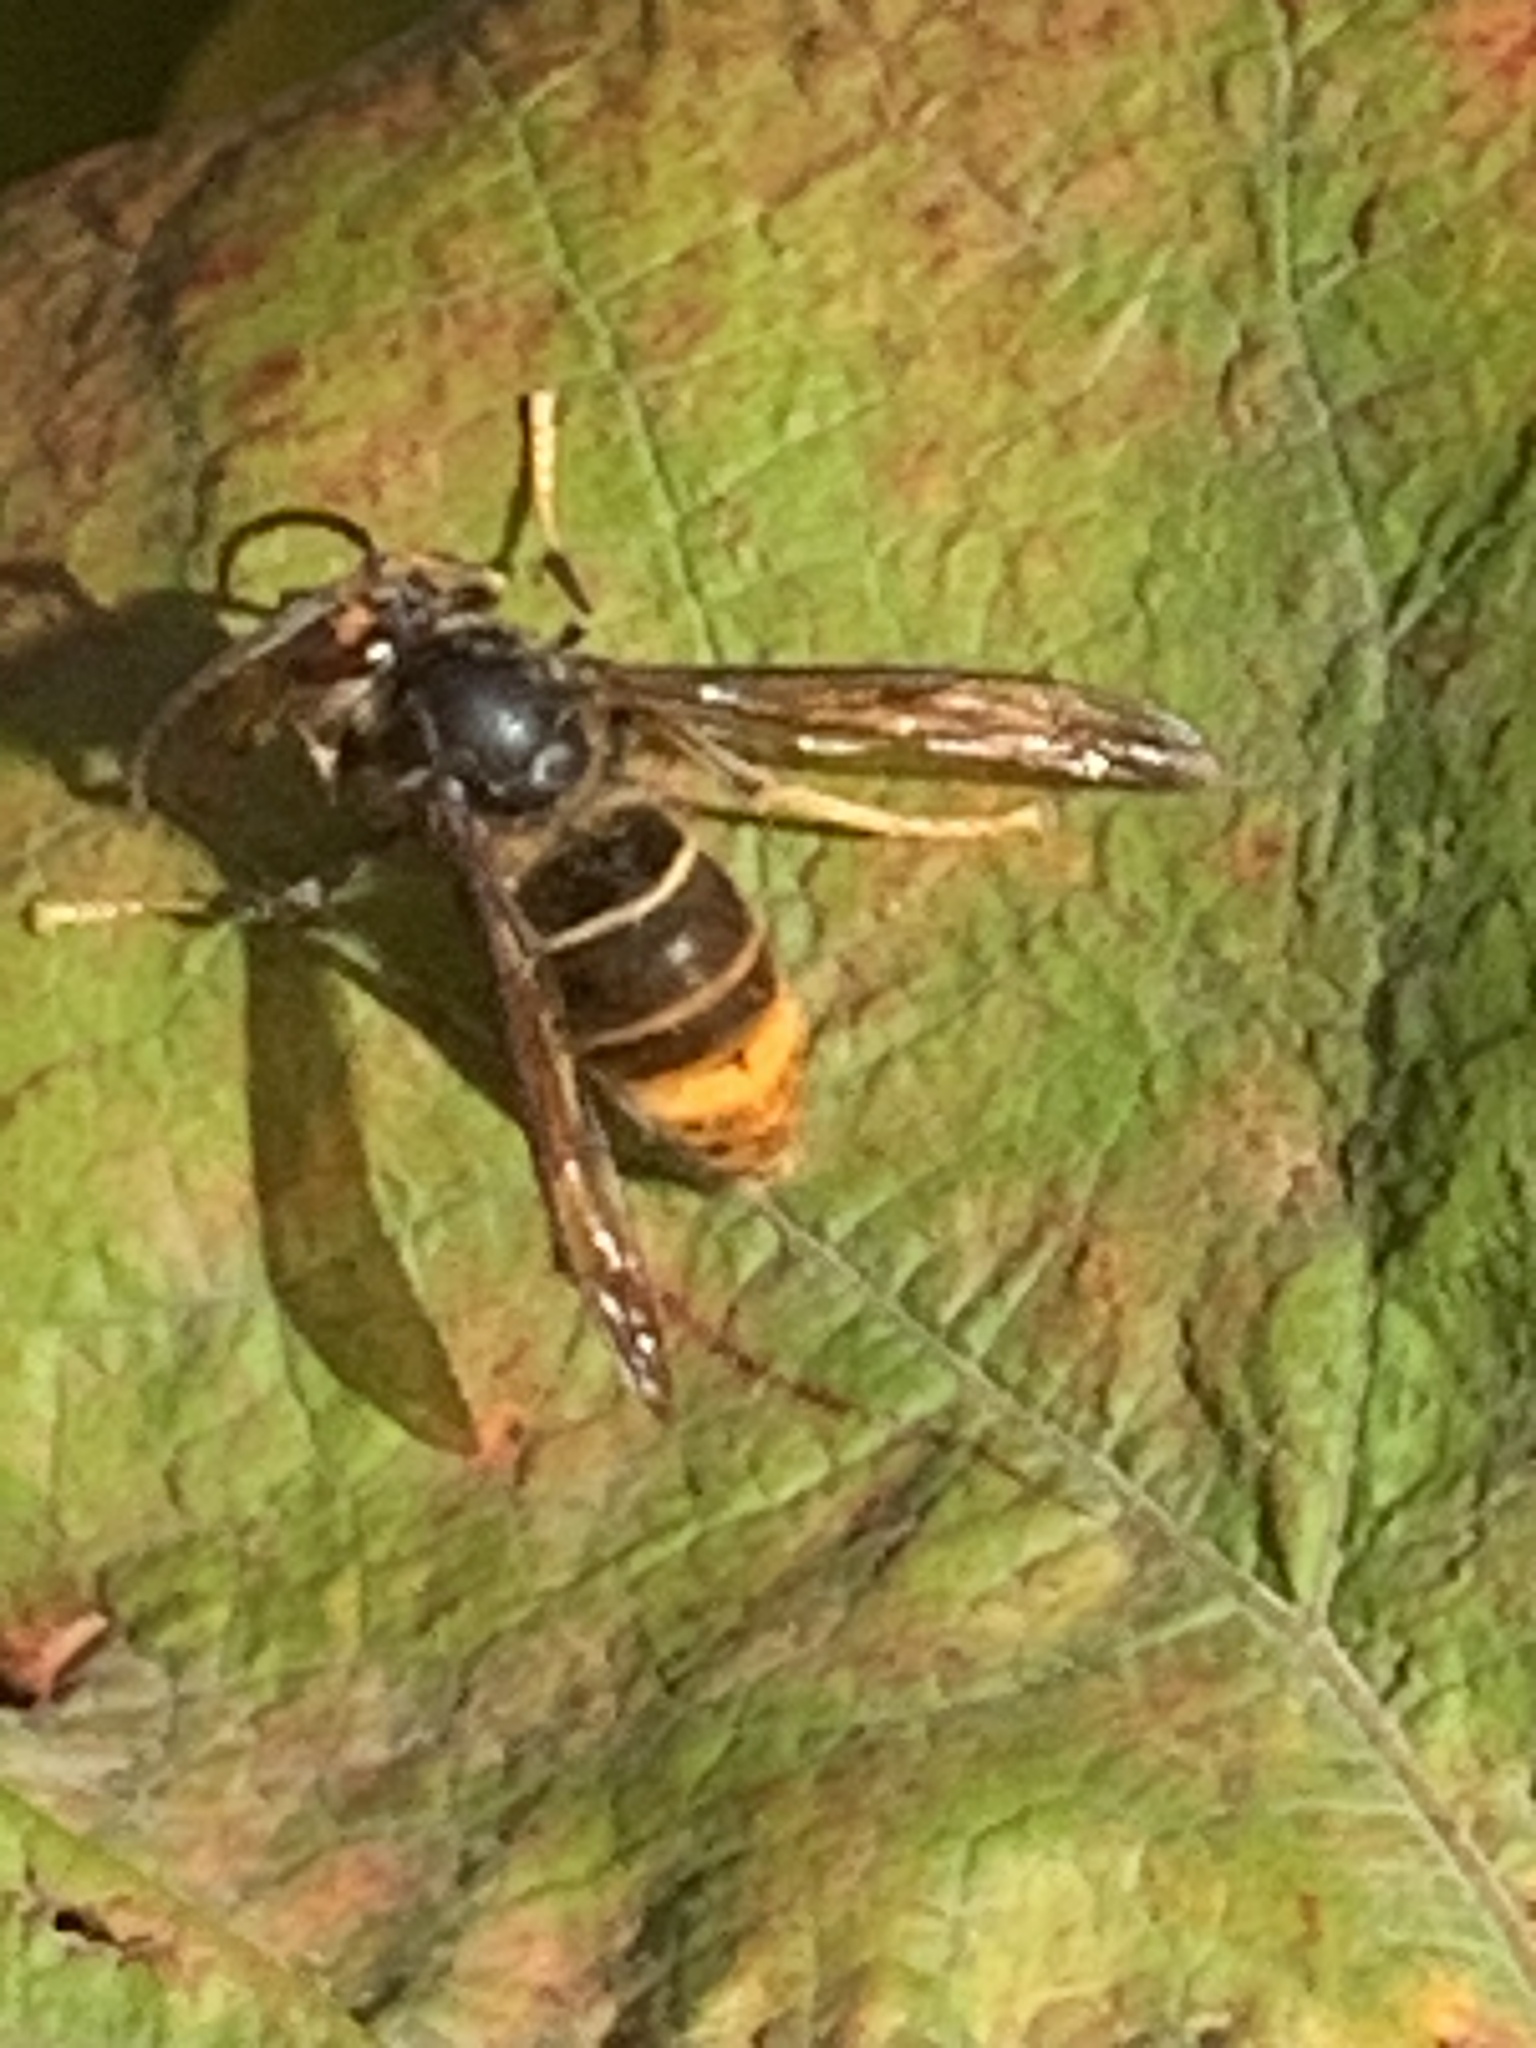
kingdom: Animalia
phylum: Arthropoda
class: Insecta
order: Hymenoptera
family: Vespidae
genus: Vespa
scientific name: Vespa velutina
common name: Asian hornet
